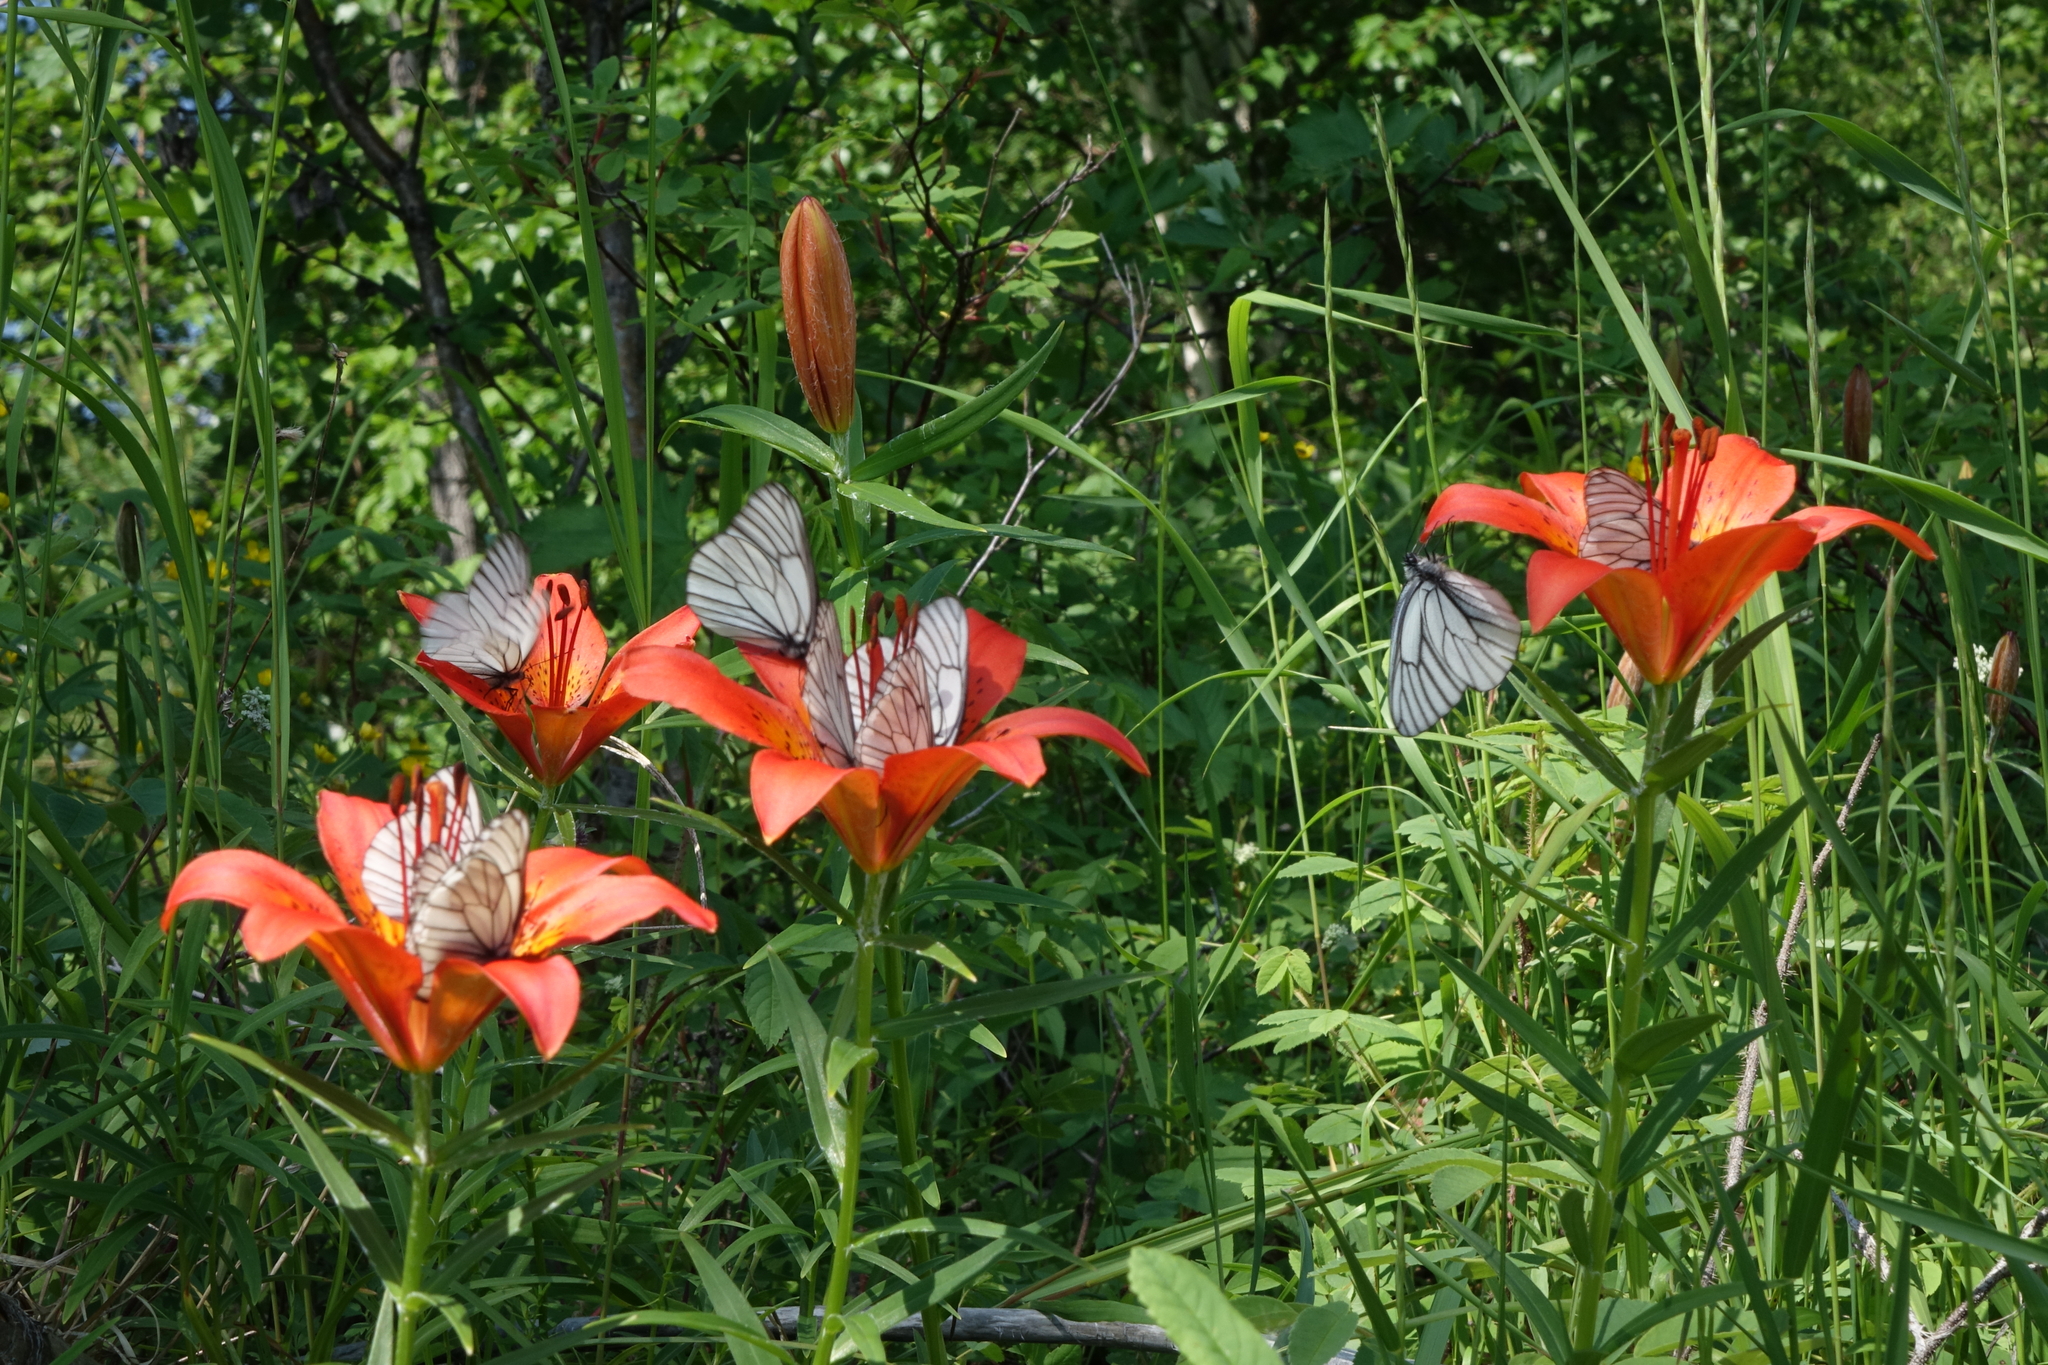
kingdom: Animalia
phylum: Arthropoda
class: Insecta
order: Lepidoptera
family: Pieridae
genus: Aporia
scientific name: Aporia crataegi
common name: Black-veined white
